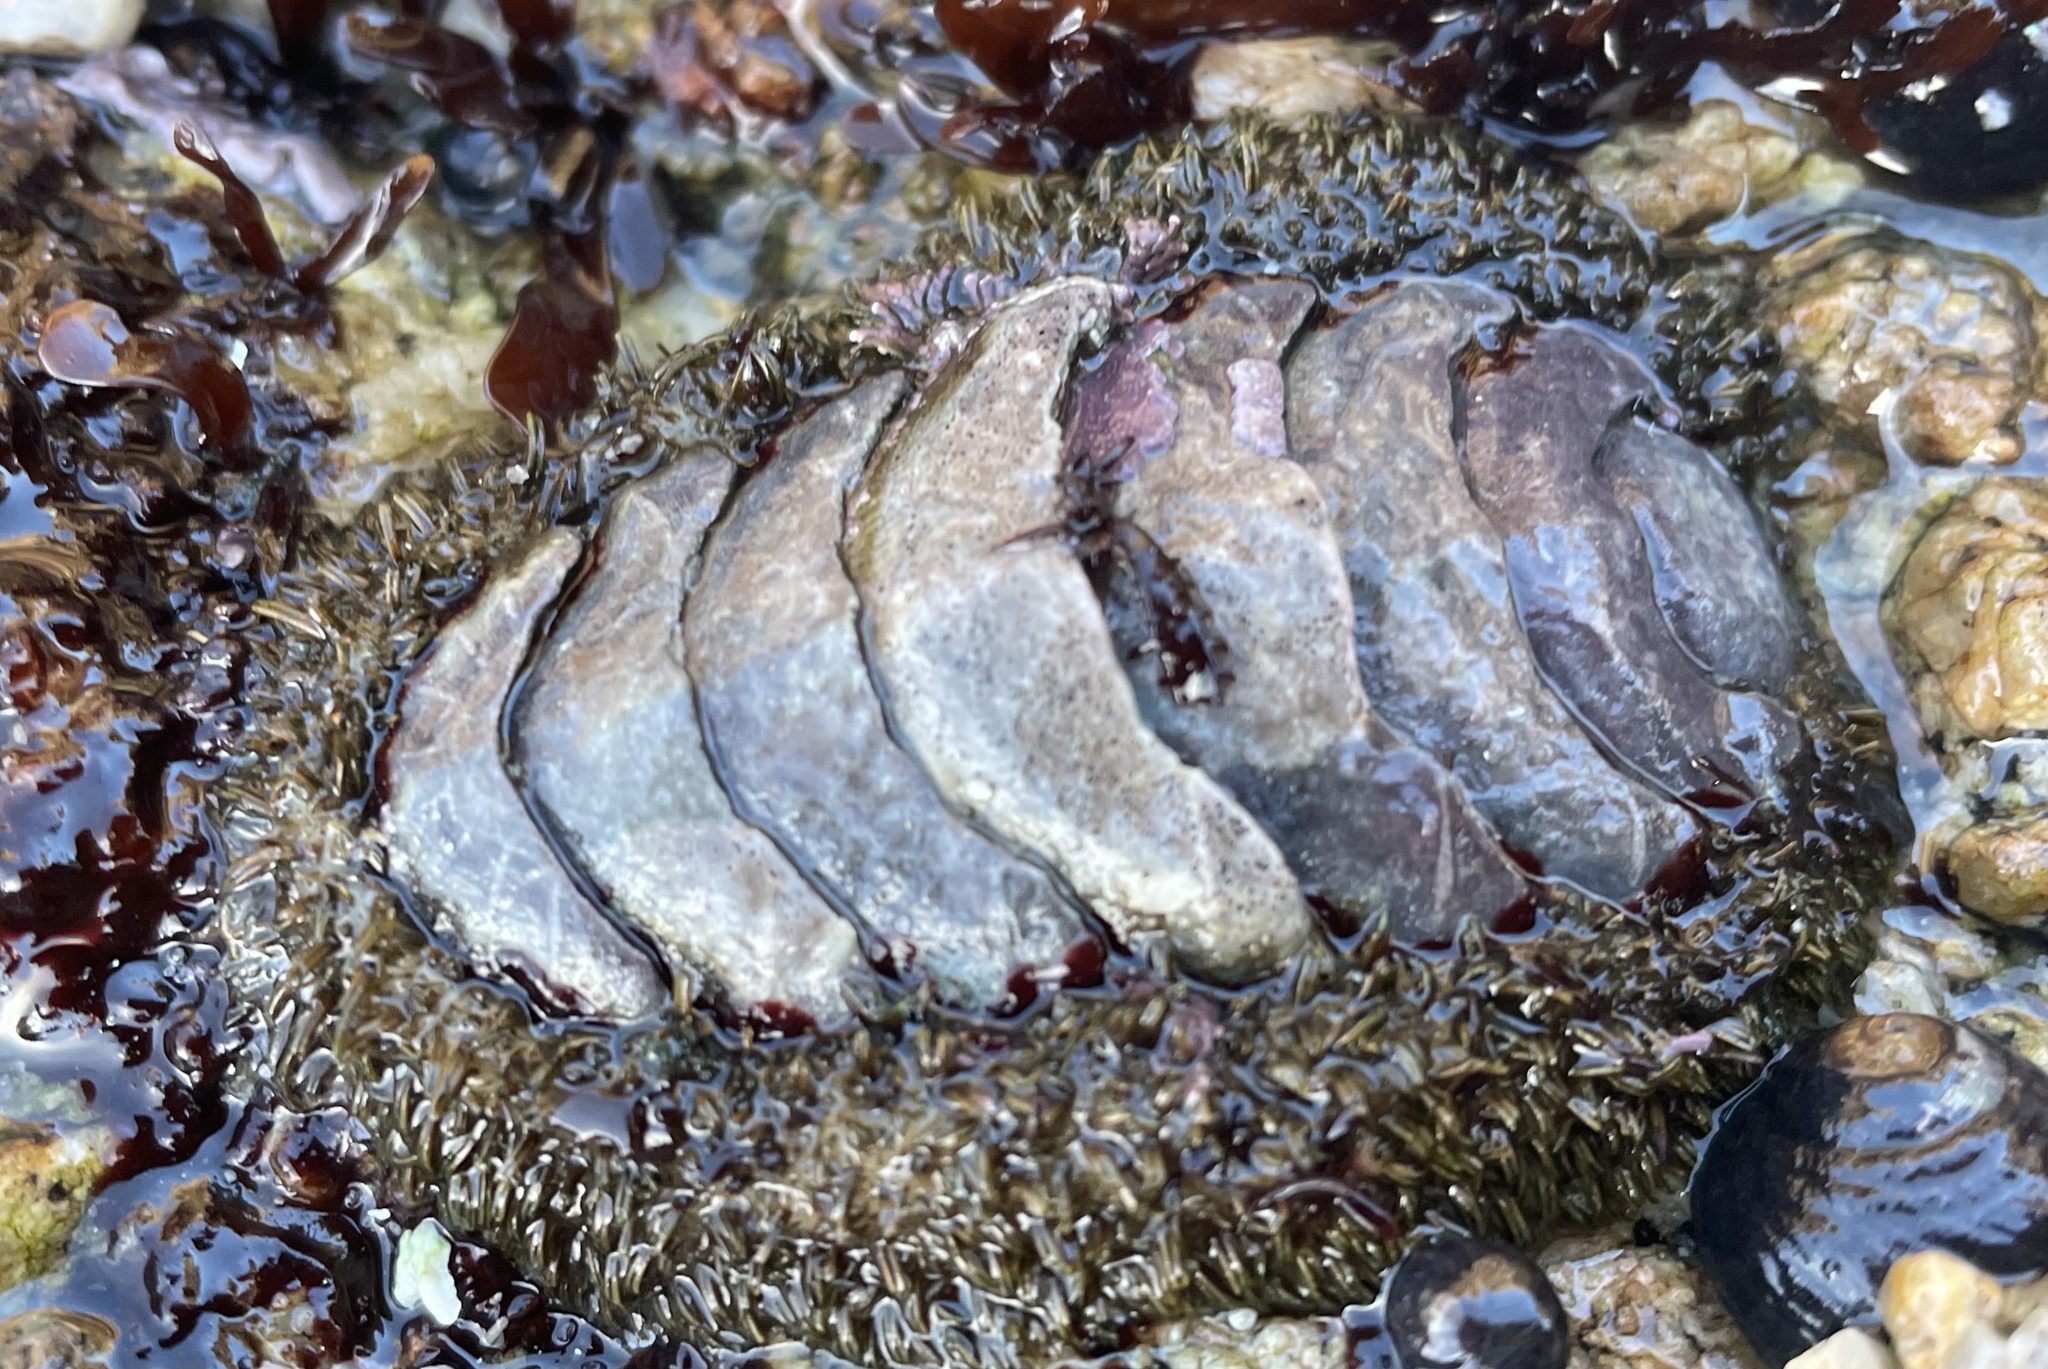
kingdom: Animalia
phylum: Mollusca
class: Polyplacophora
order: Chitonida
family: Mopaliidae
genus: Mopalia
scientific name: Mopalia muscosa
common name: Mossy chiton
